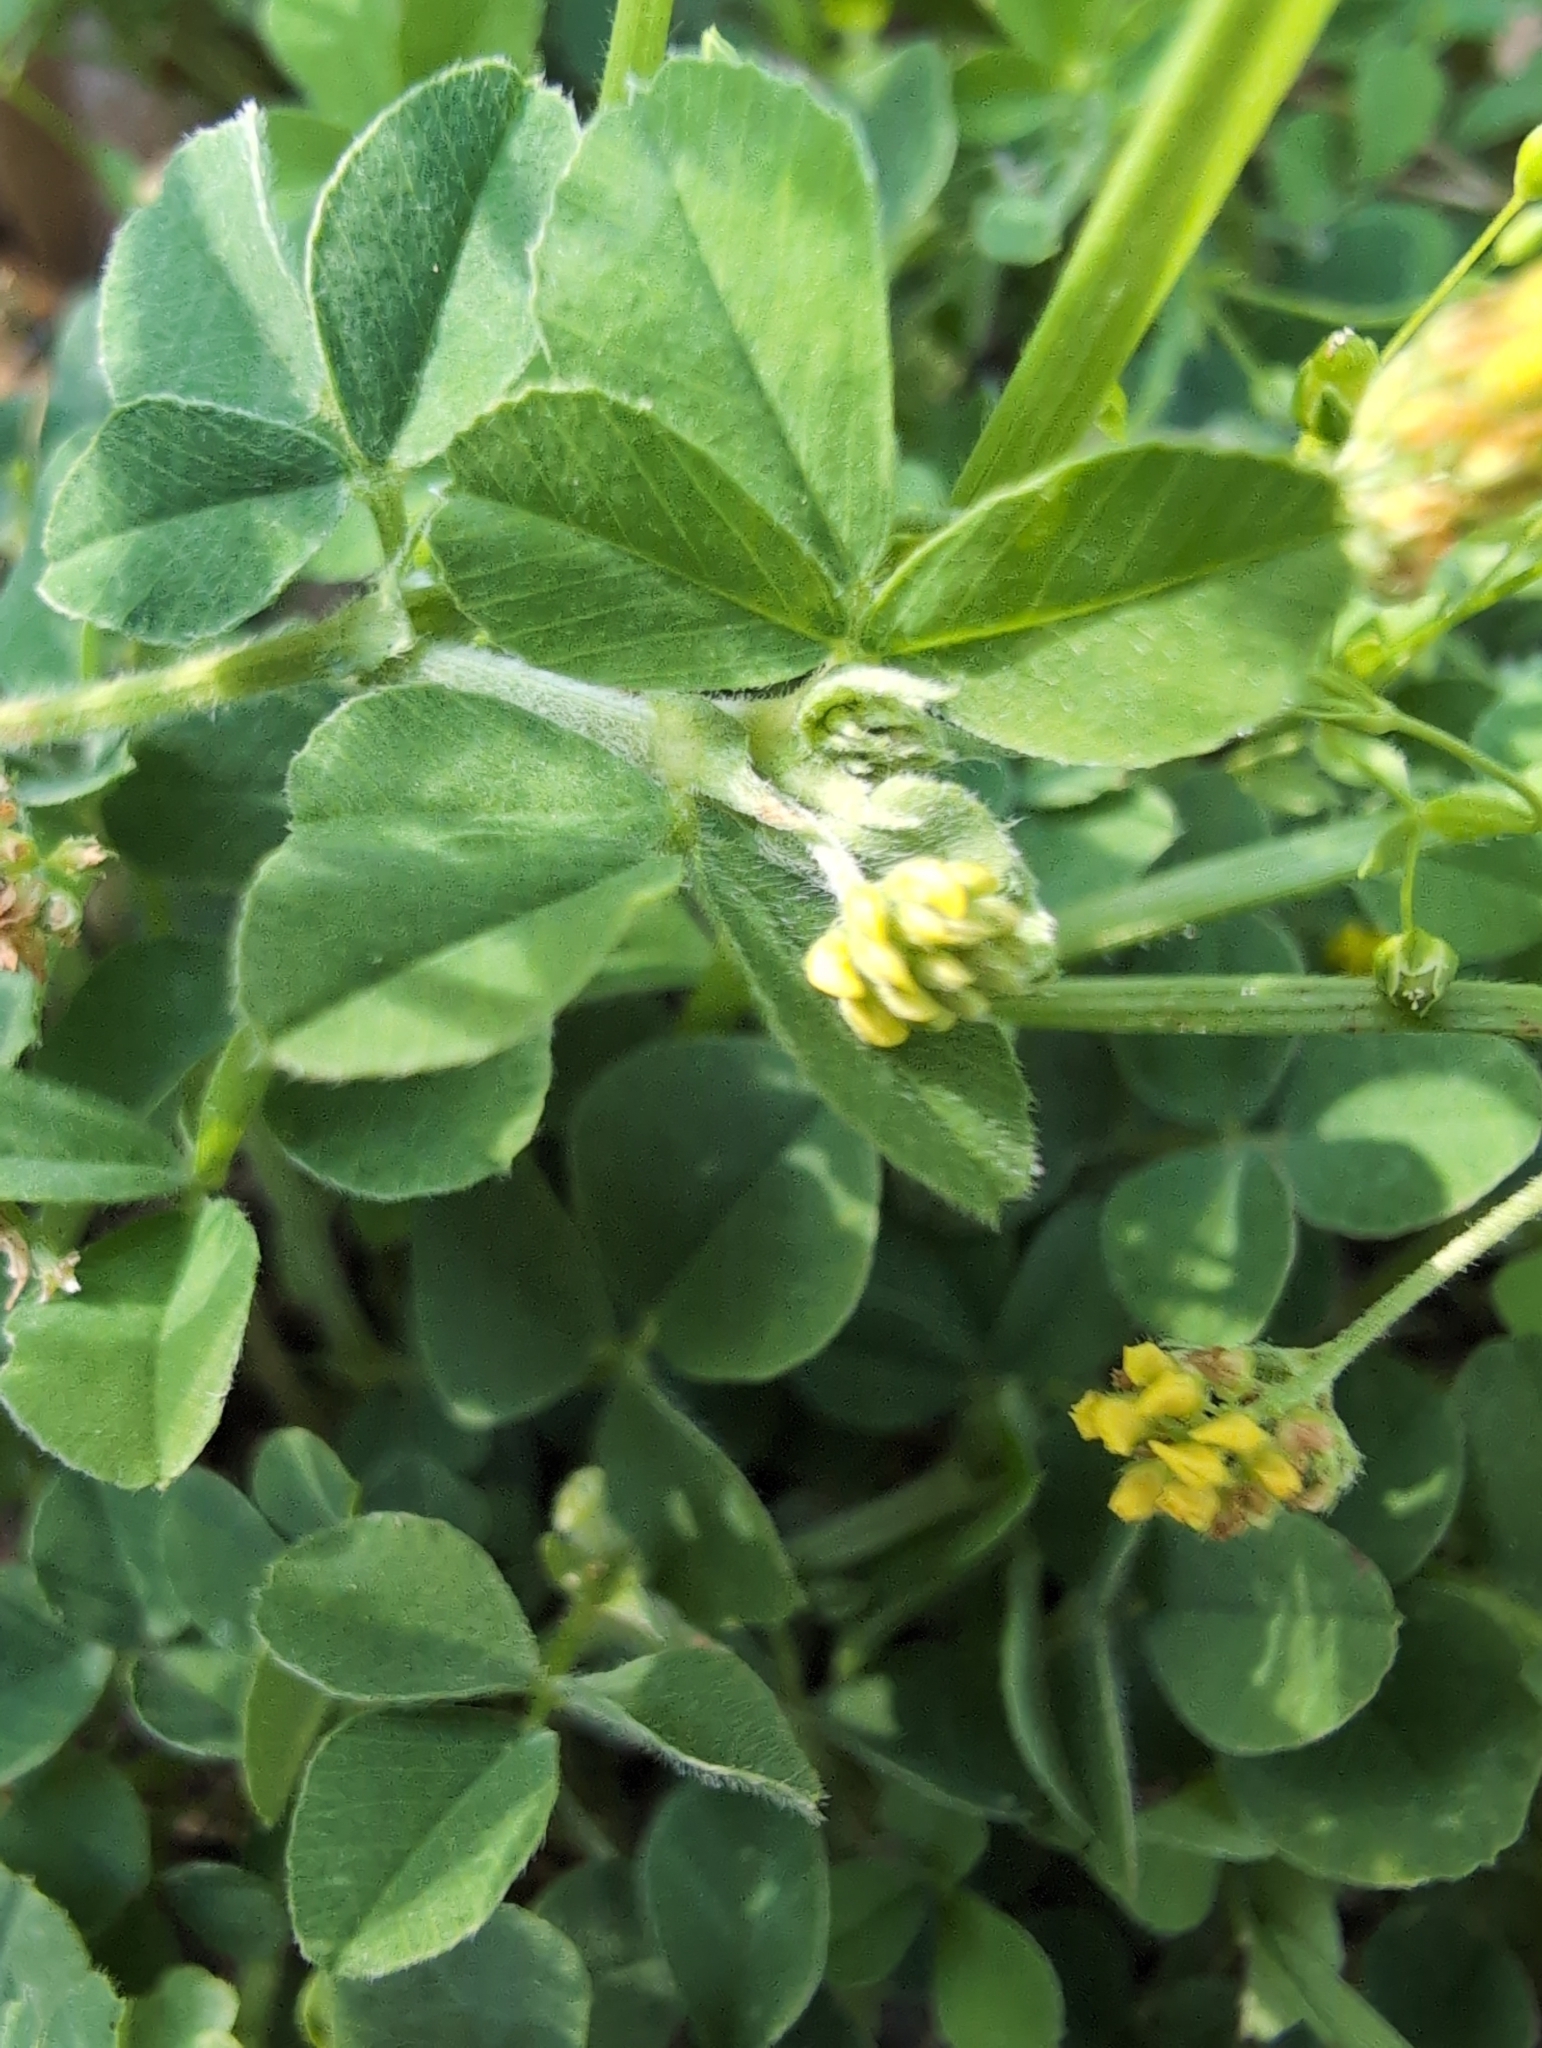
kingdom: Plantae
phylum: Tracheophyta
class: Magnoliopsida
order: Fabales
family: Fabaceae
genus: Medicago
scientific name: Medicago lupulina
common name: Black medick
